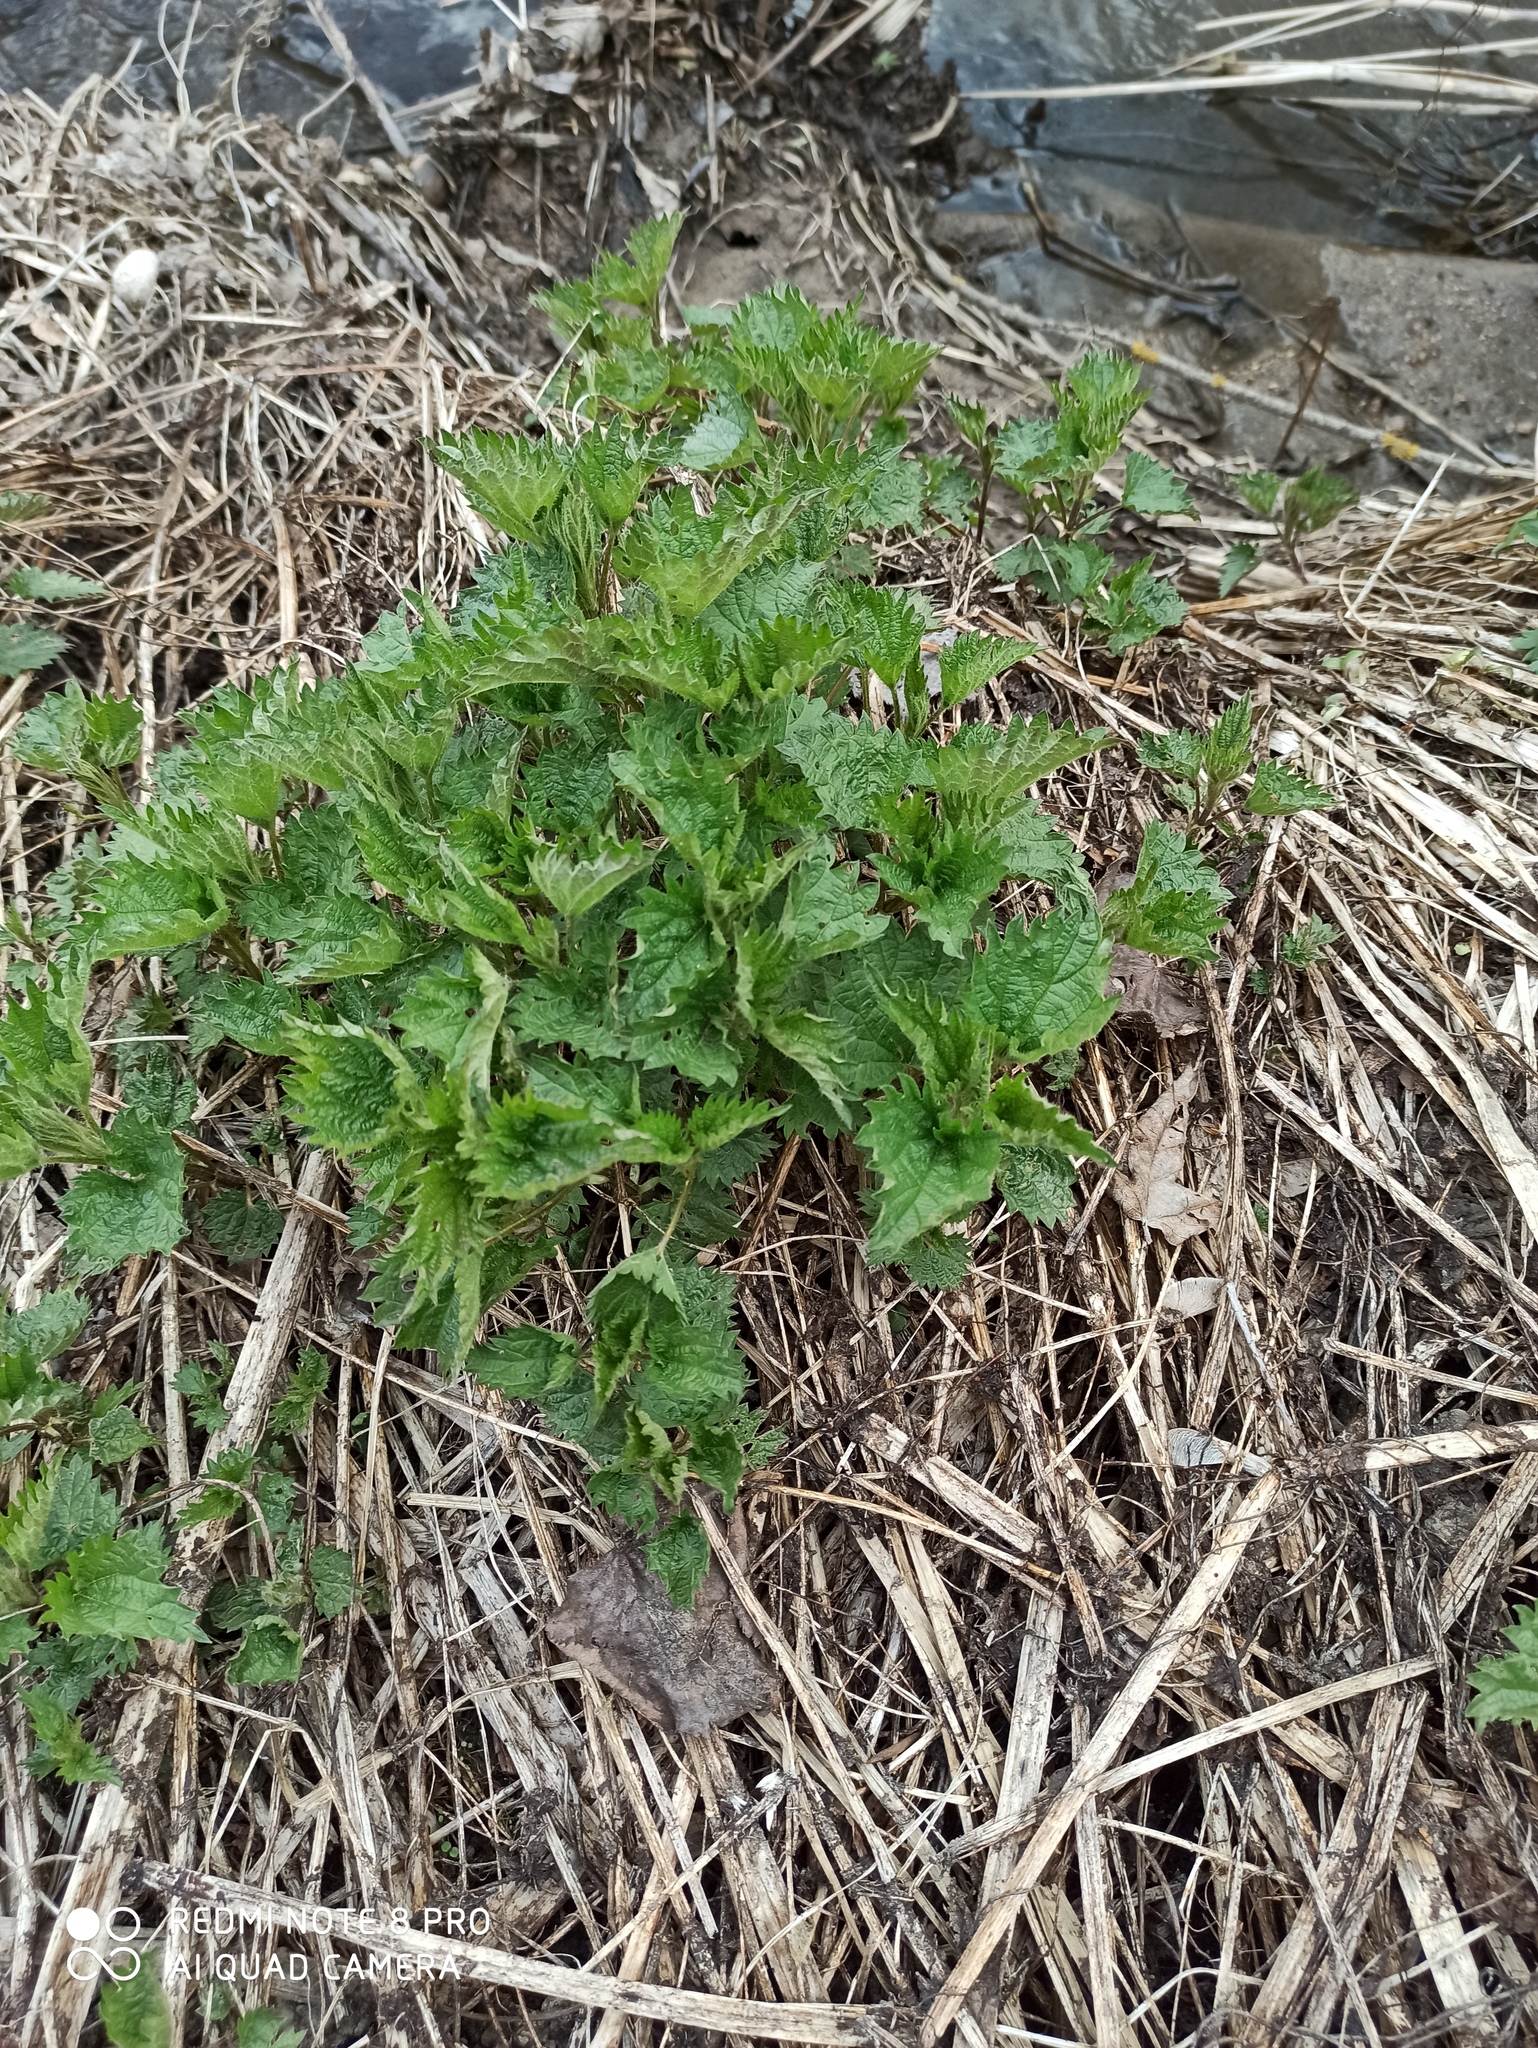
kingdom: Plantae
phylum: Tracheophyta
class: Magnoliopsida
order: Rosales
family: Urticaceae
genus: Urtica
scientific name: Urtica dioica
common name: Common nettle
